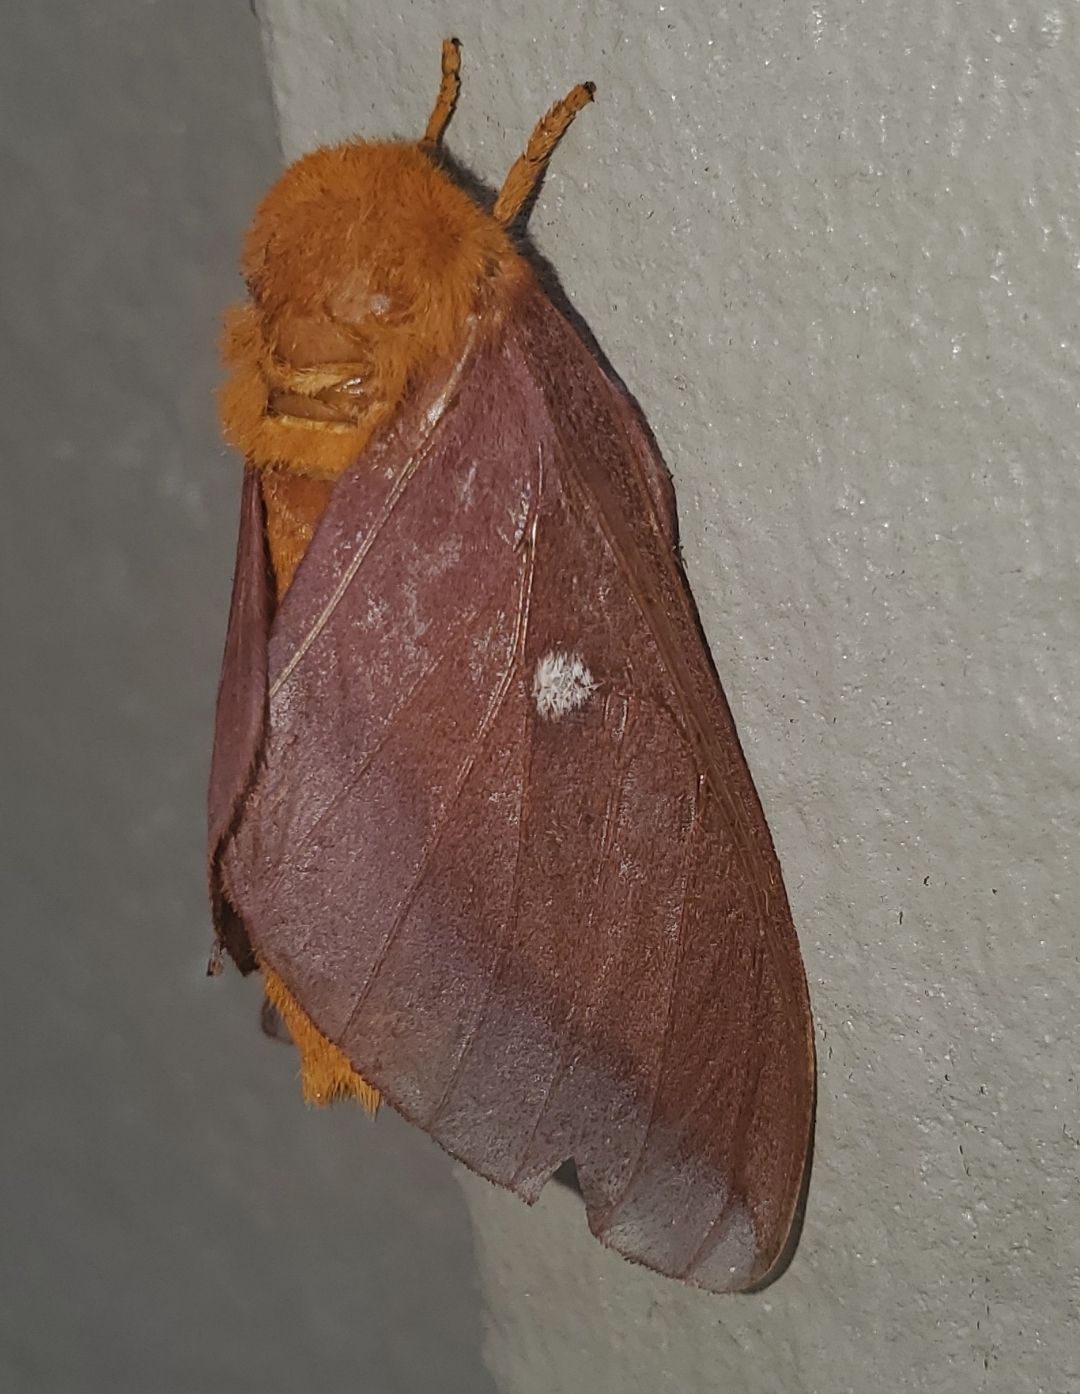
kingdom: Animalia
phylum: Arthropoda
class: Insecta
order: Lepidoptera
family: Saturniidae
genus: Anisota
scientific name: Anisota virginiensis
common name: Pink striped oakworm moth
